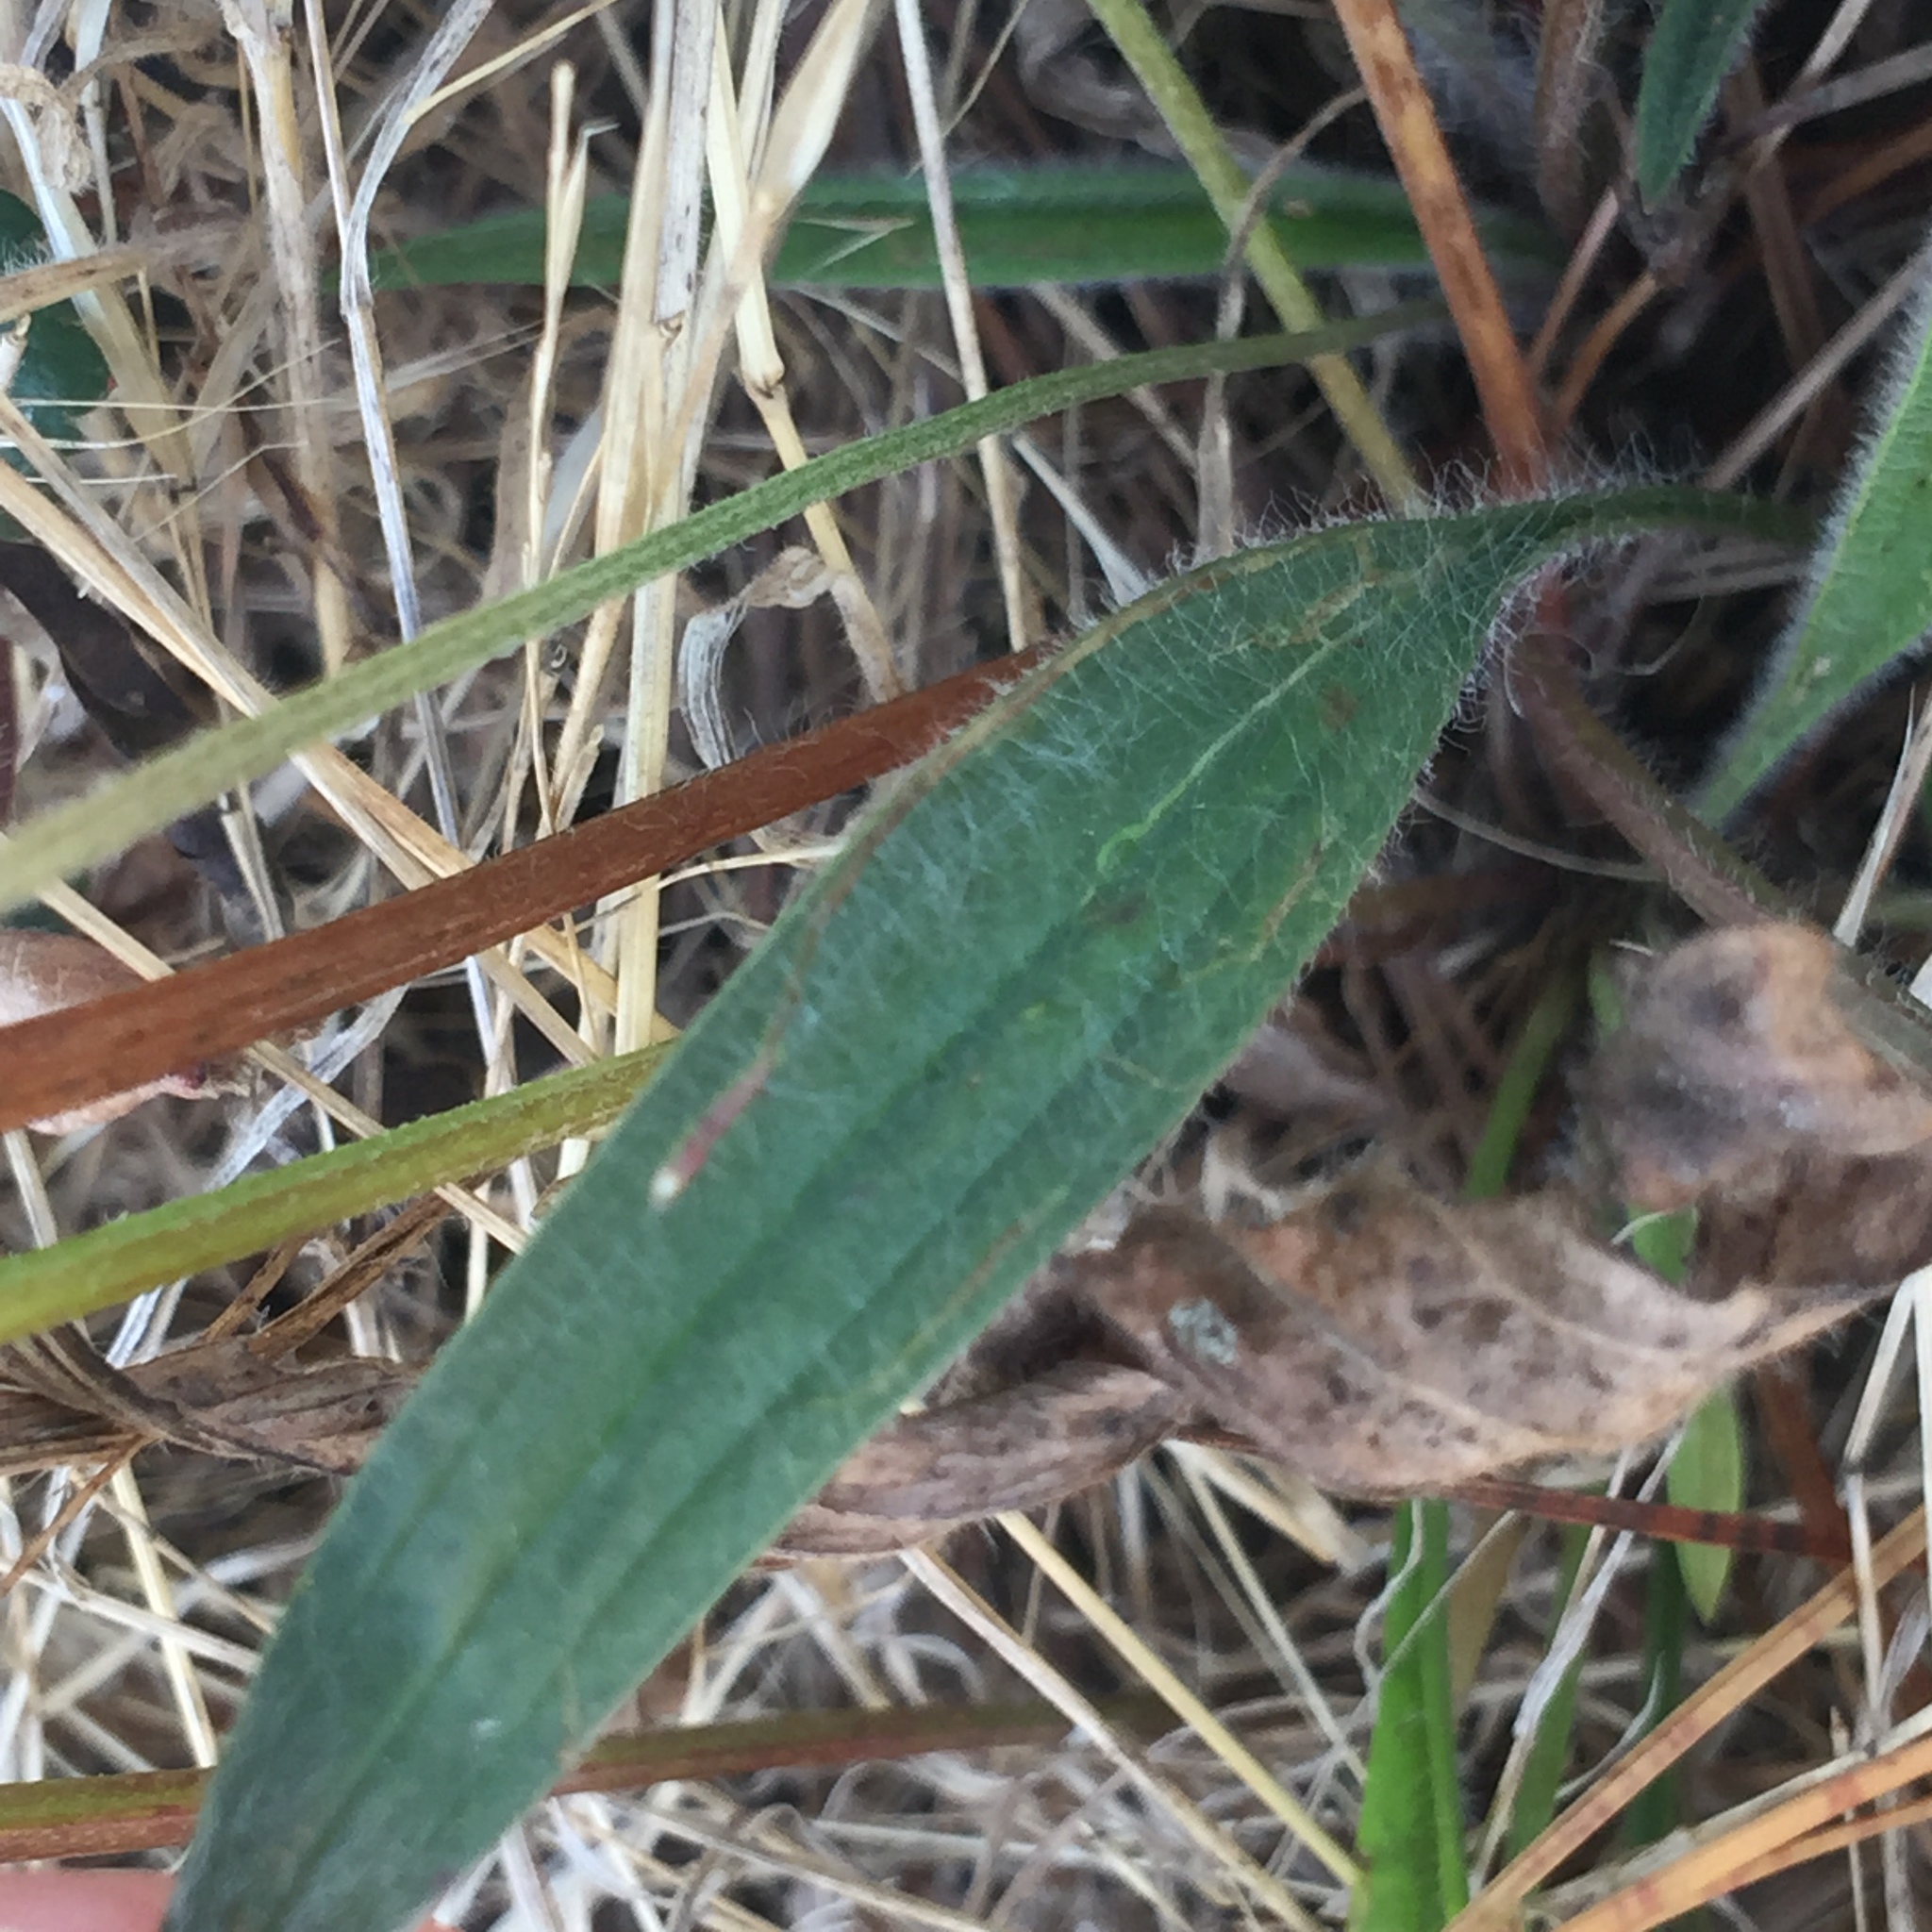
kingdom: Plantae
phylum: Tracheophyta
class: Magnoliopsida
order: Lamiales
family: Plantaginaceae
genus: Plantago
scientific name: Plantago lanceolata
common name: Ribwort plantain
